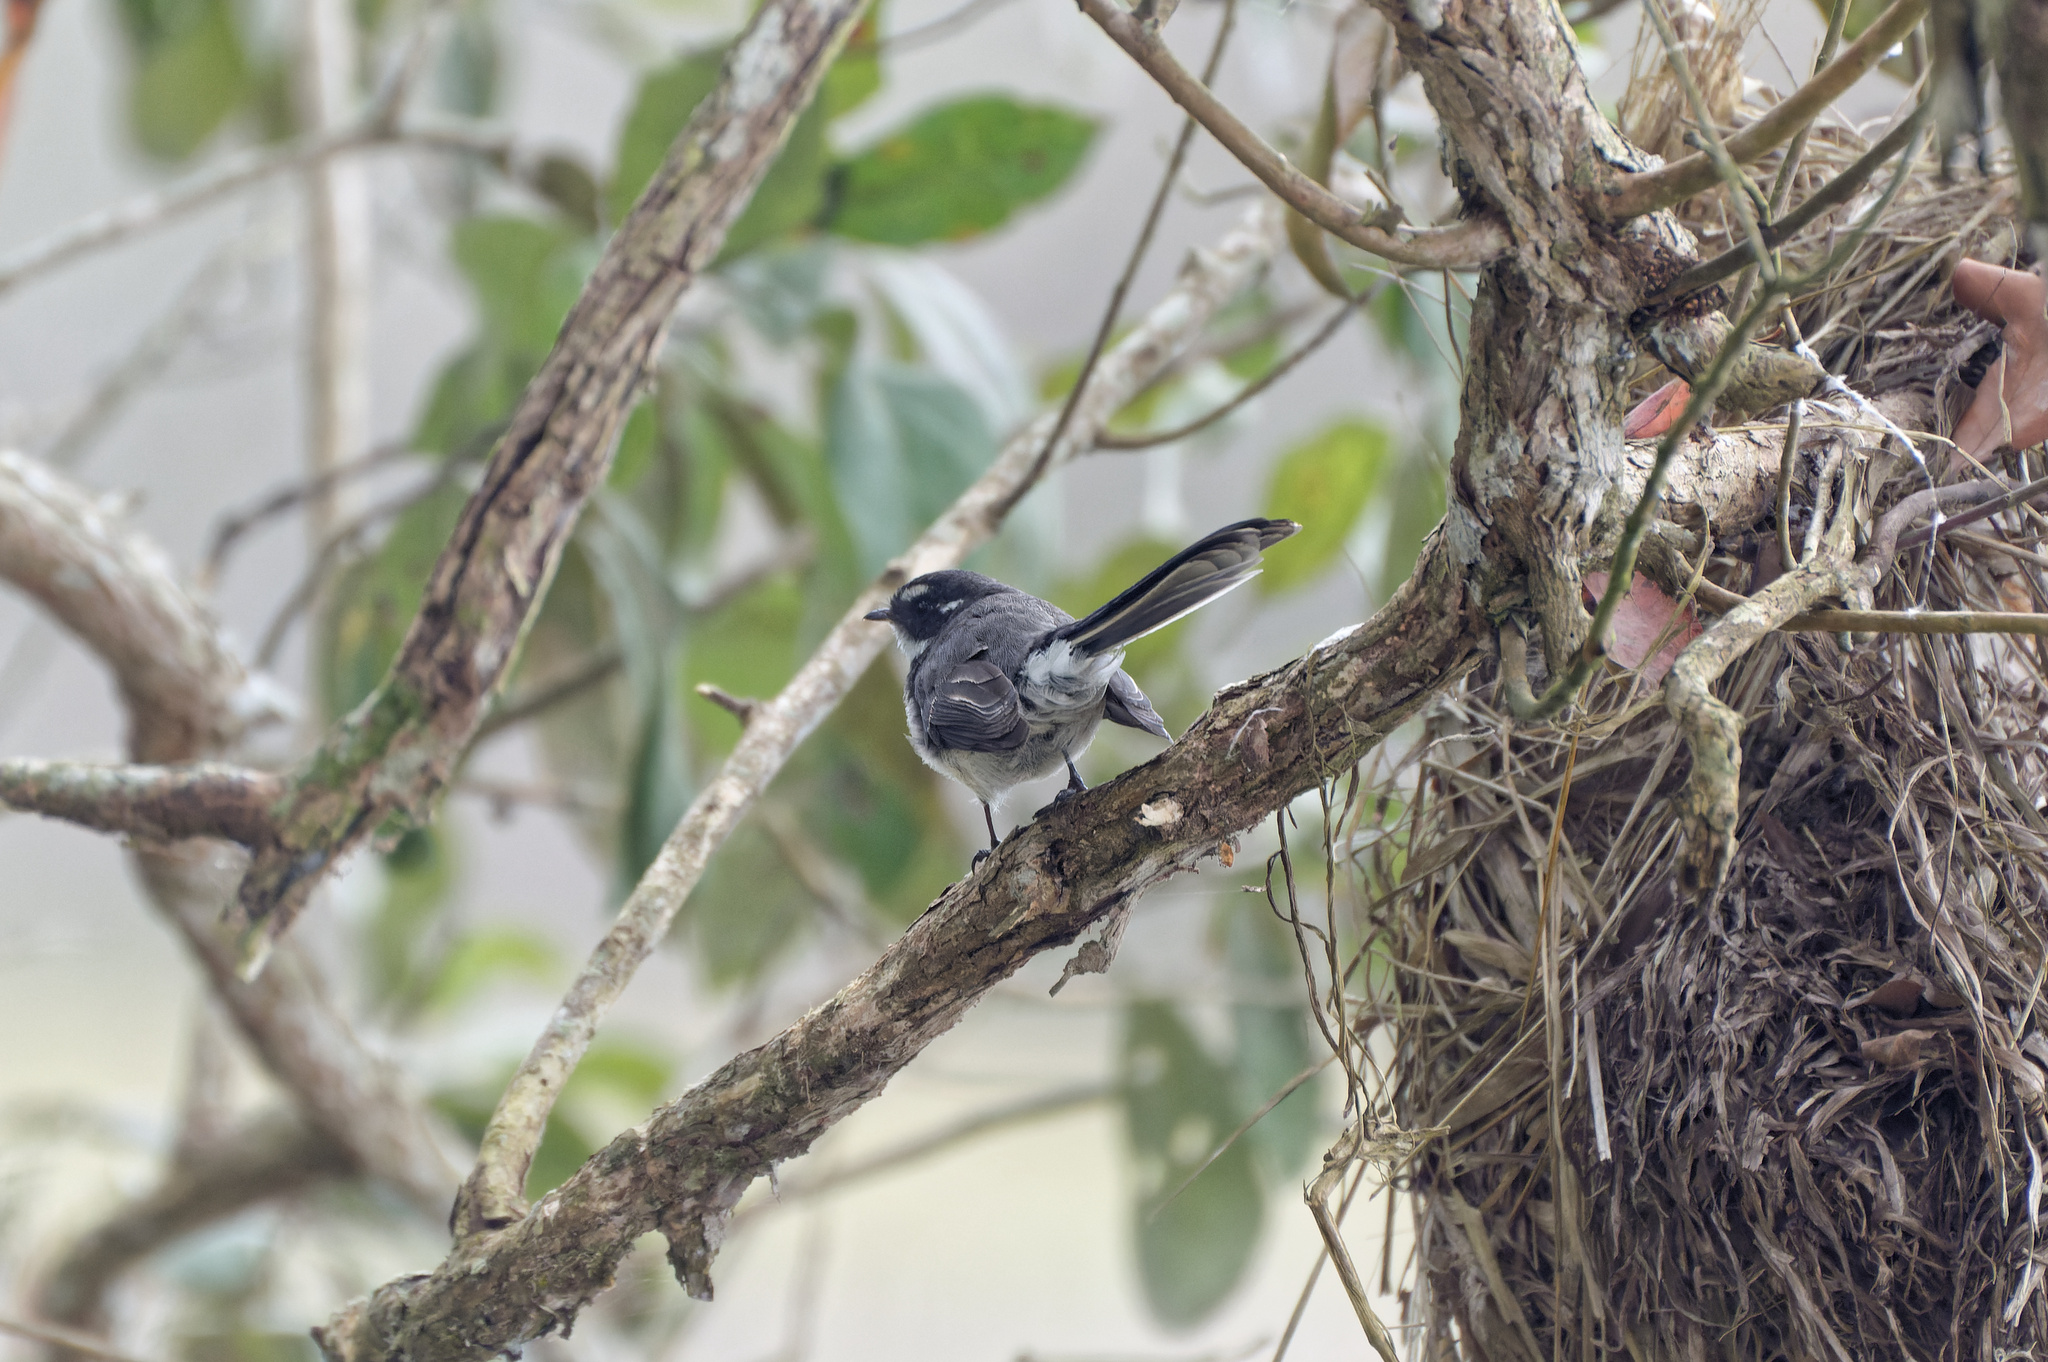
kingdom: Animalia
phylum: Chordata
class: Aves
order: Passeriformes
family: Rhipiduridae
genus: Rhipidura
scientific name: Rhipidura albiscapa
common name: Grey fantail
